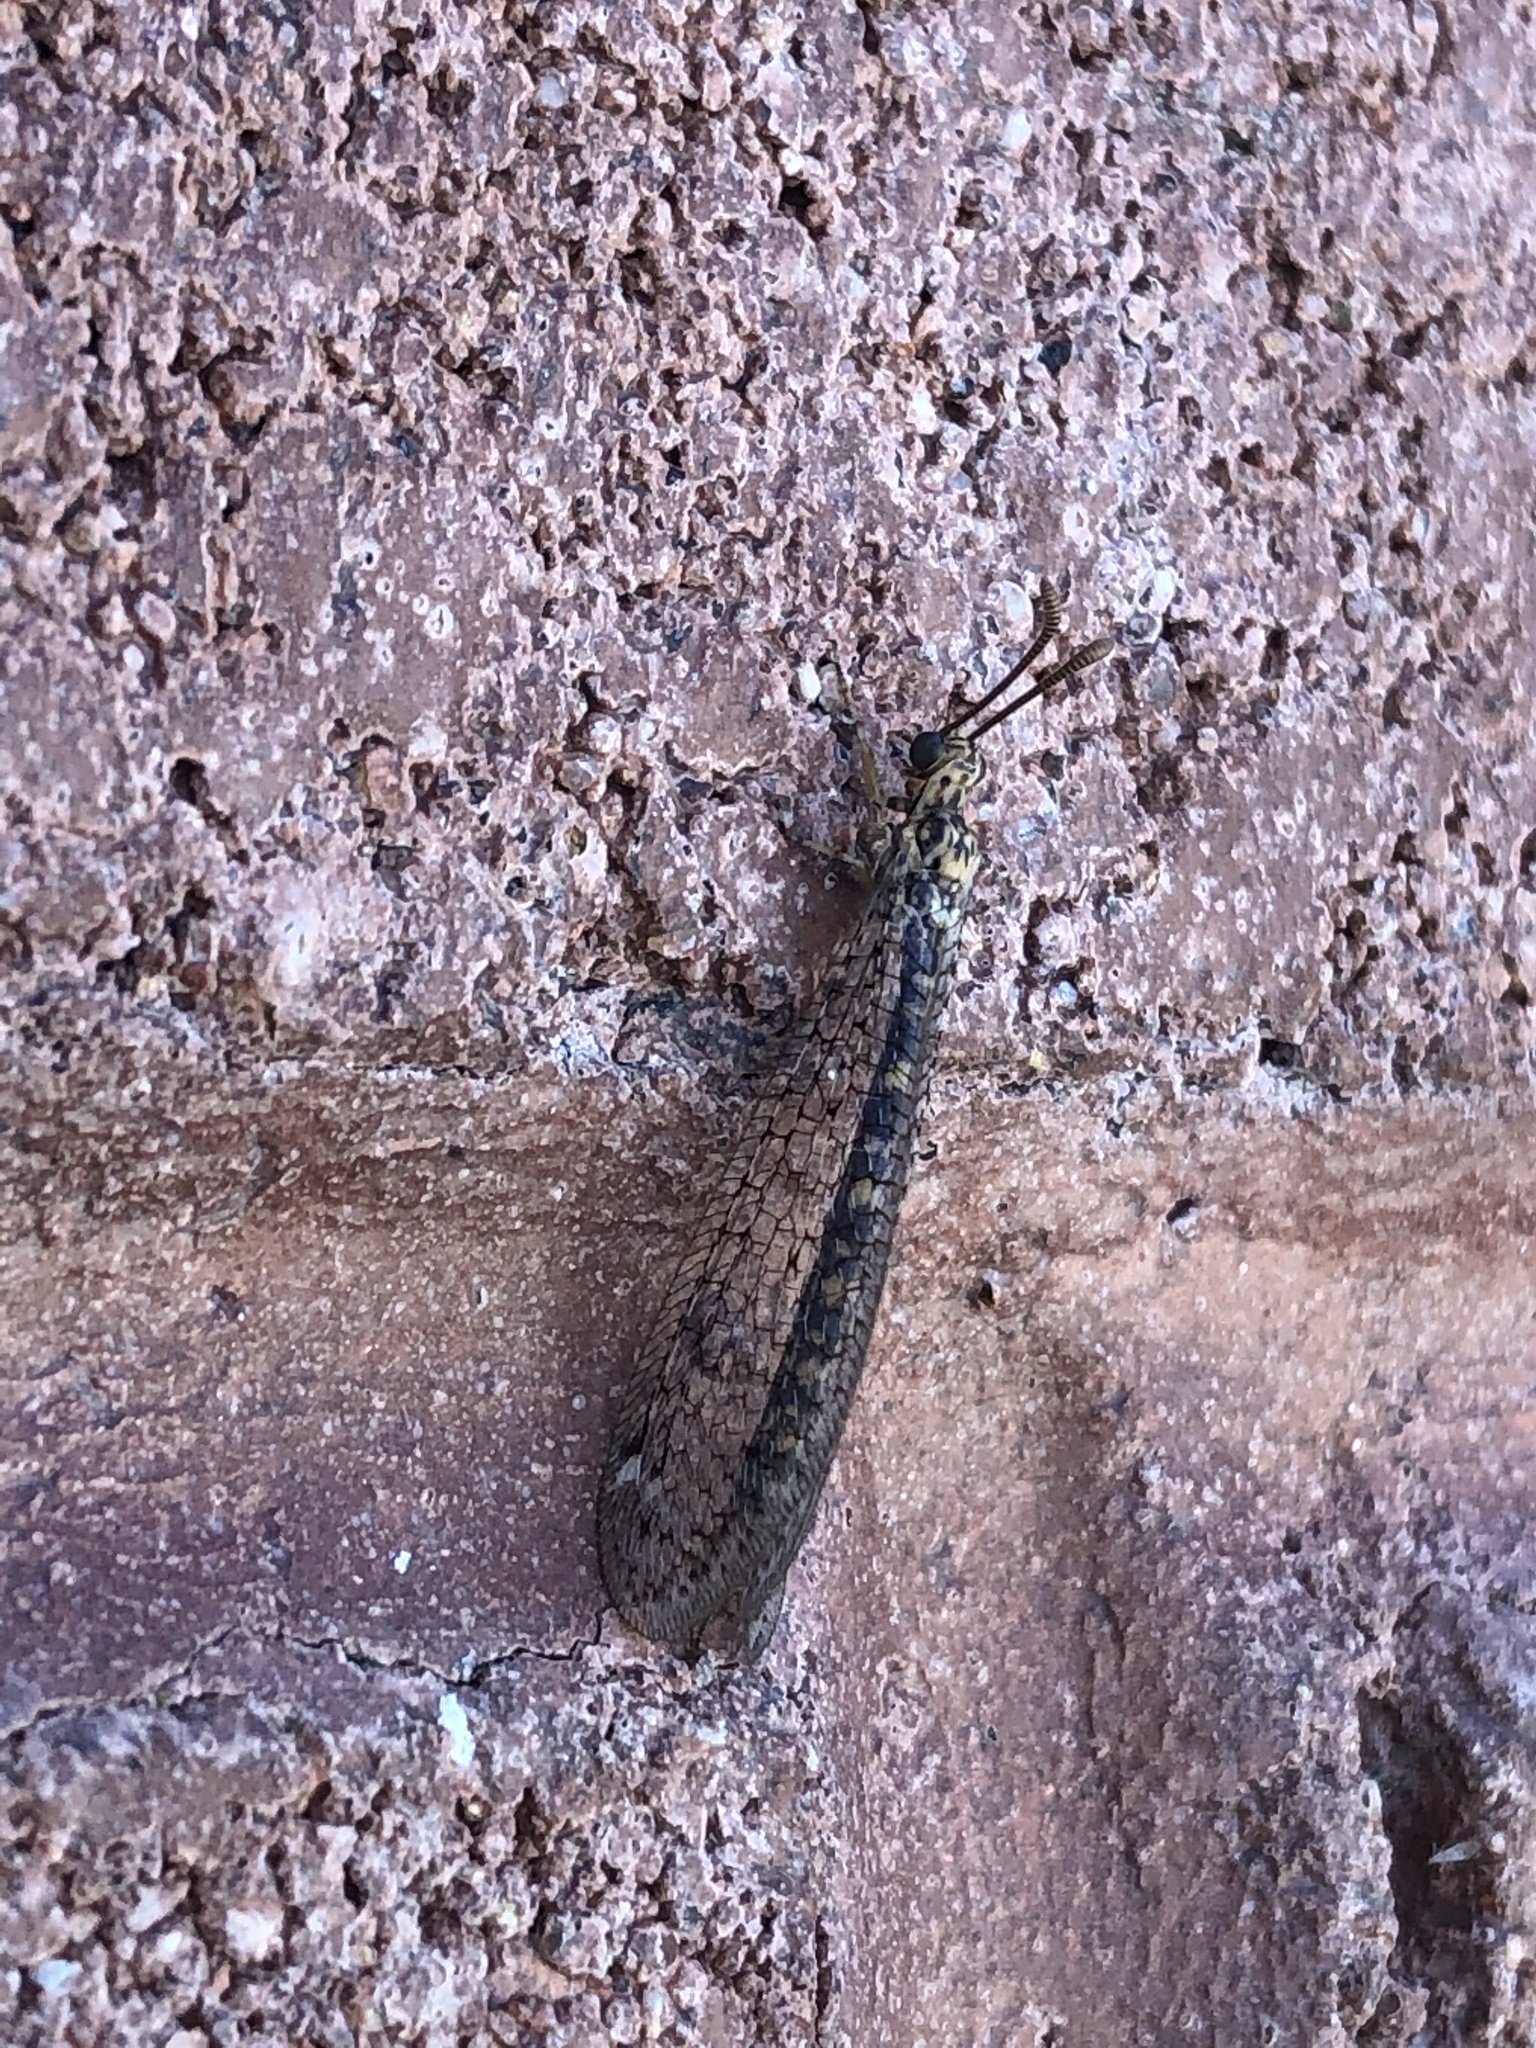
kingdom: Animalia
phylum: Arthropoda
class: Insecta
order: Neuroptera
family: Myrmeleontidae
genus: Scotoleon
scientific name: Scotoleon expansus
